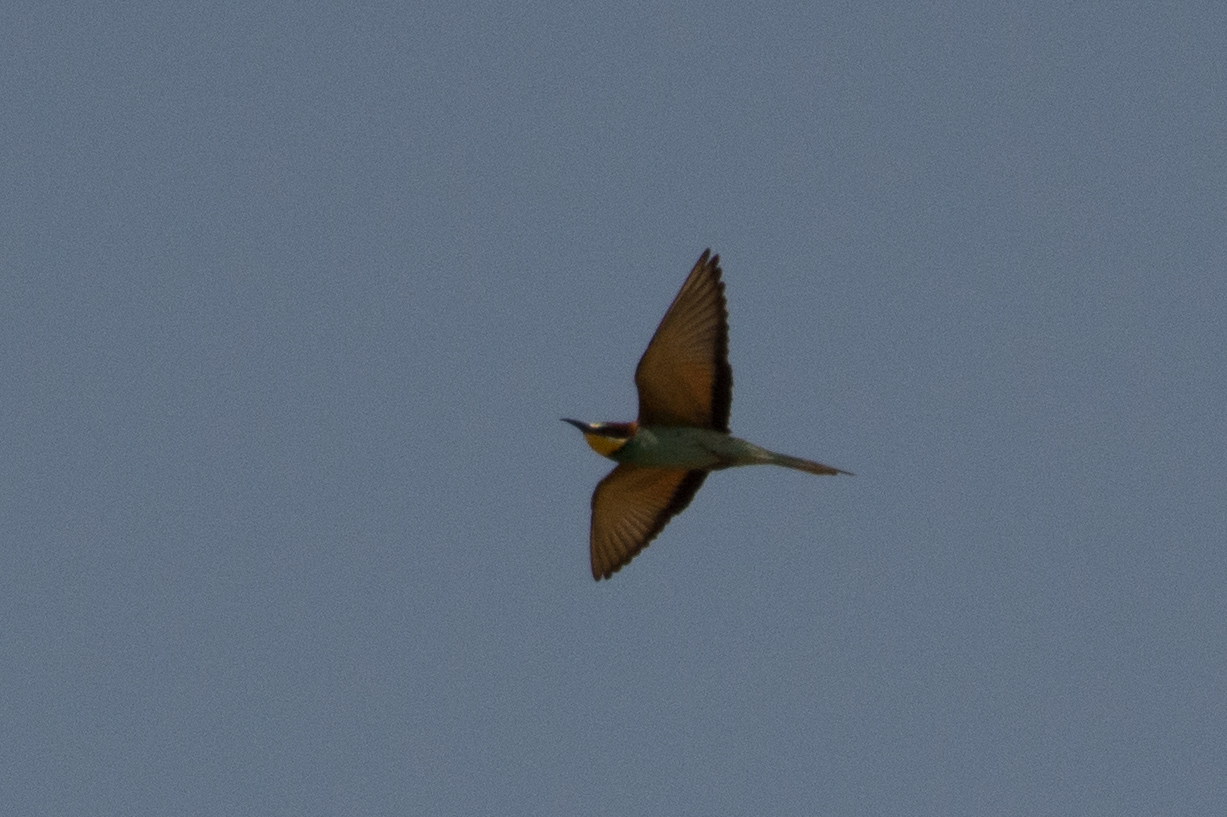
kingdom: Animalia
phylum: Chordata
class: Aves
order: Coraciiformes
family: Meropidae
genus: Merops
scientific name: Merops apiaster
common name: European bee-eater
